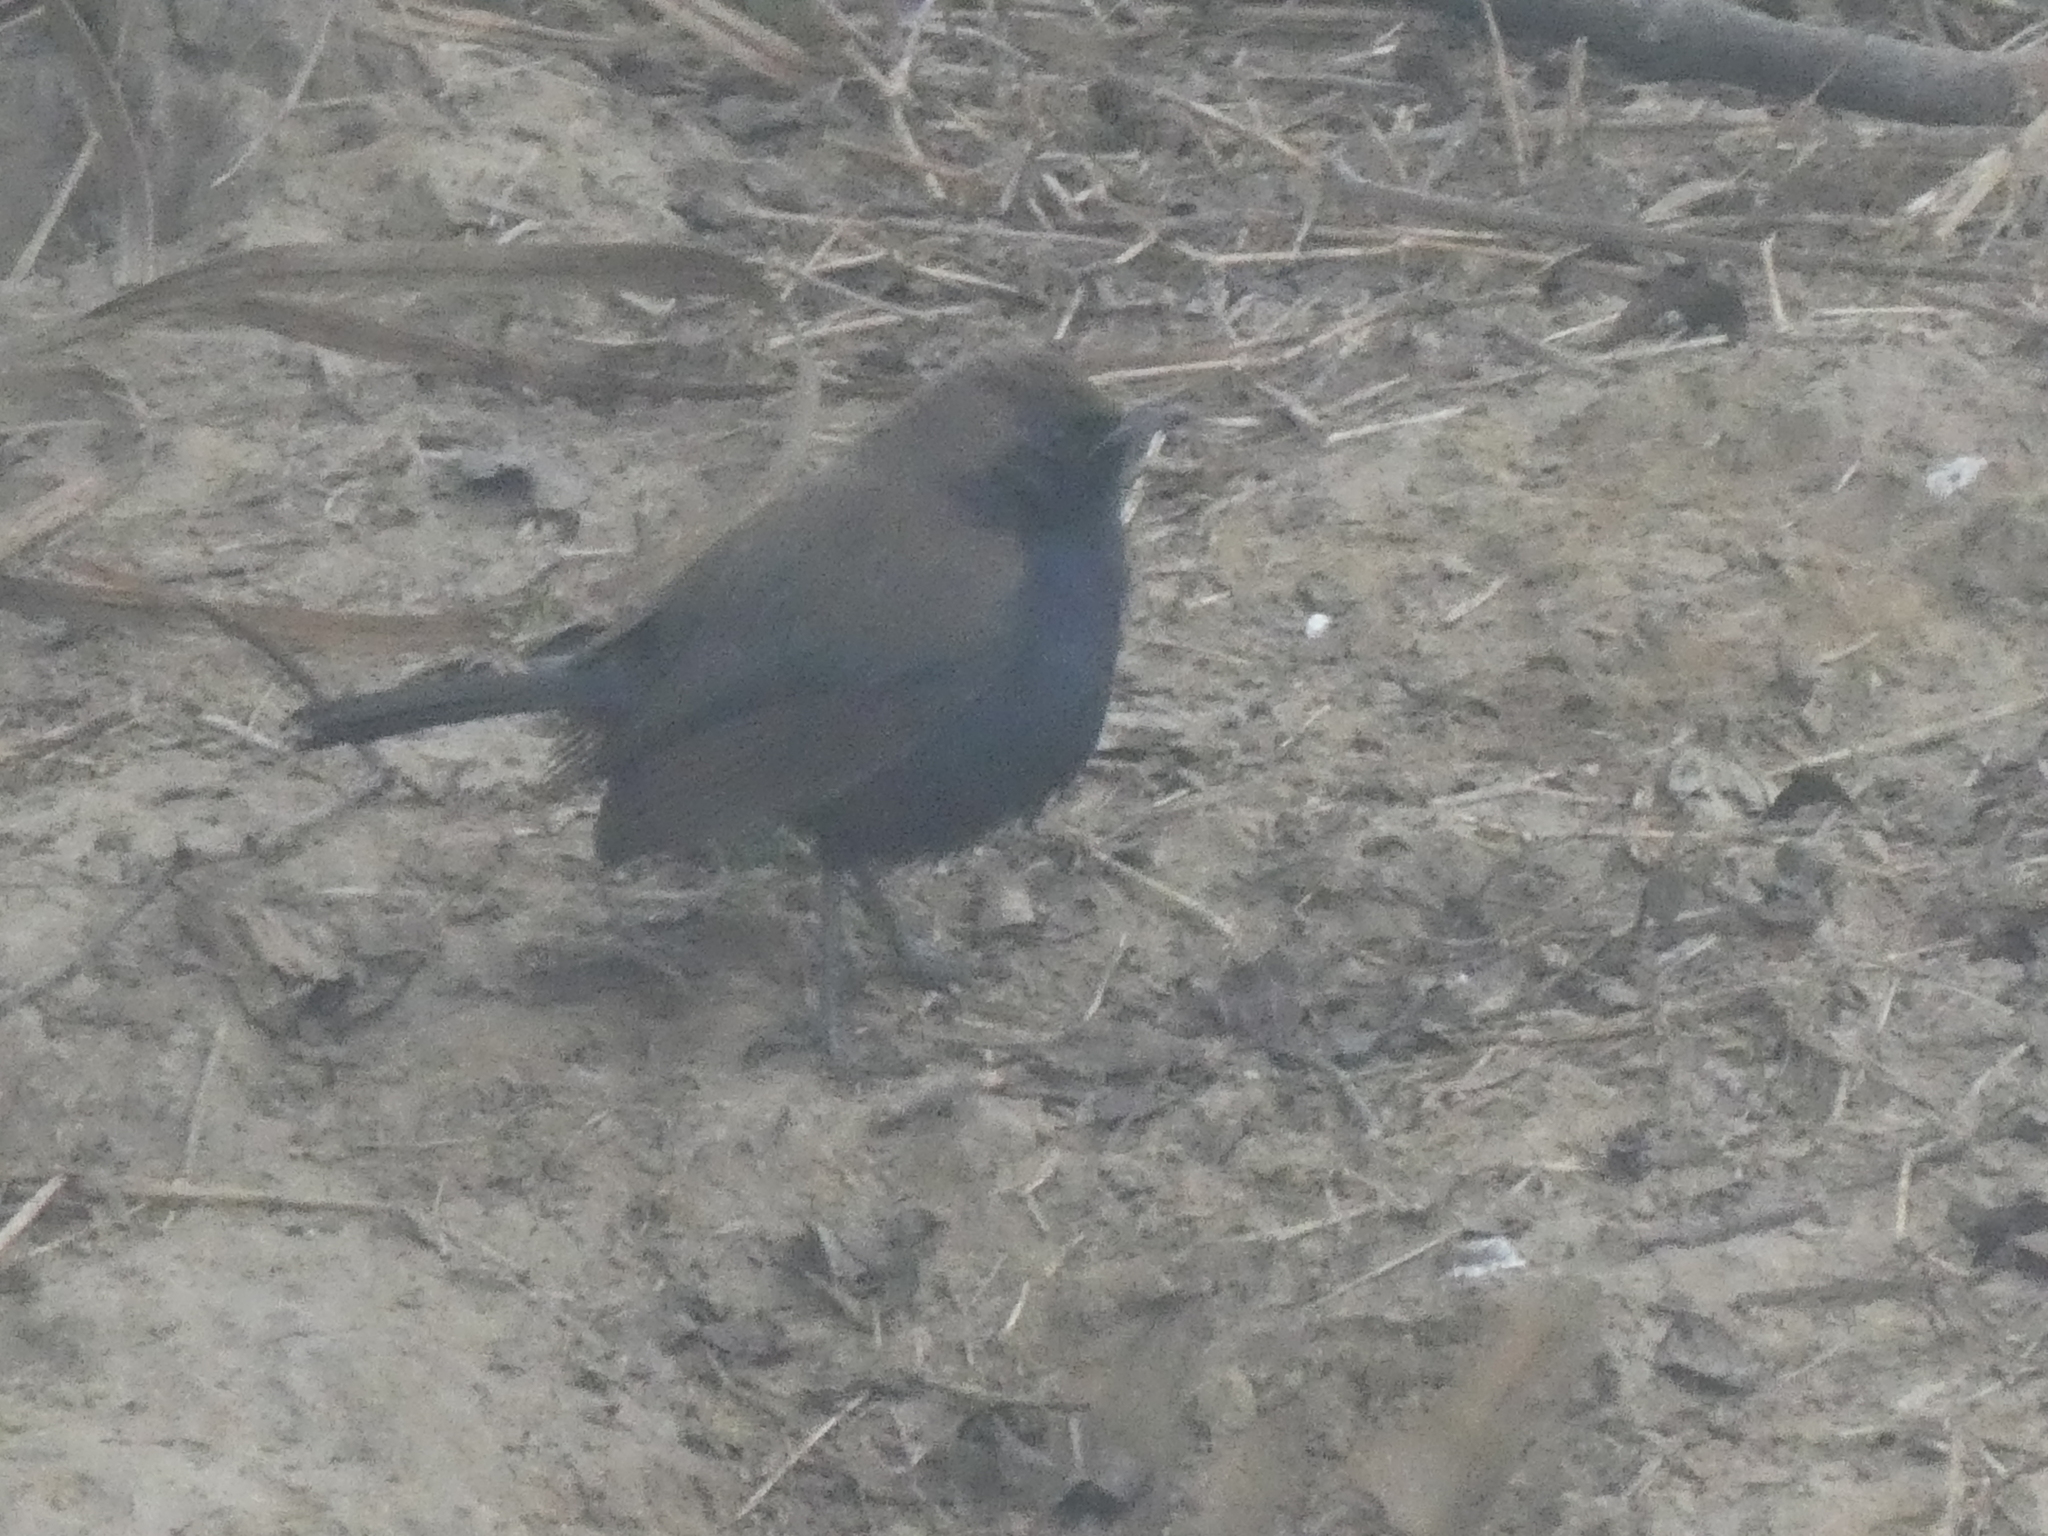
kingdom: Animalia
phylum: Chordata
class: Aves
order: Passeriformes
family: Muscicapidae
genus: Saxicoloides
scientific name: Saxicoloides fulicatus
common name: Indian robin
